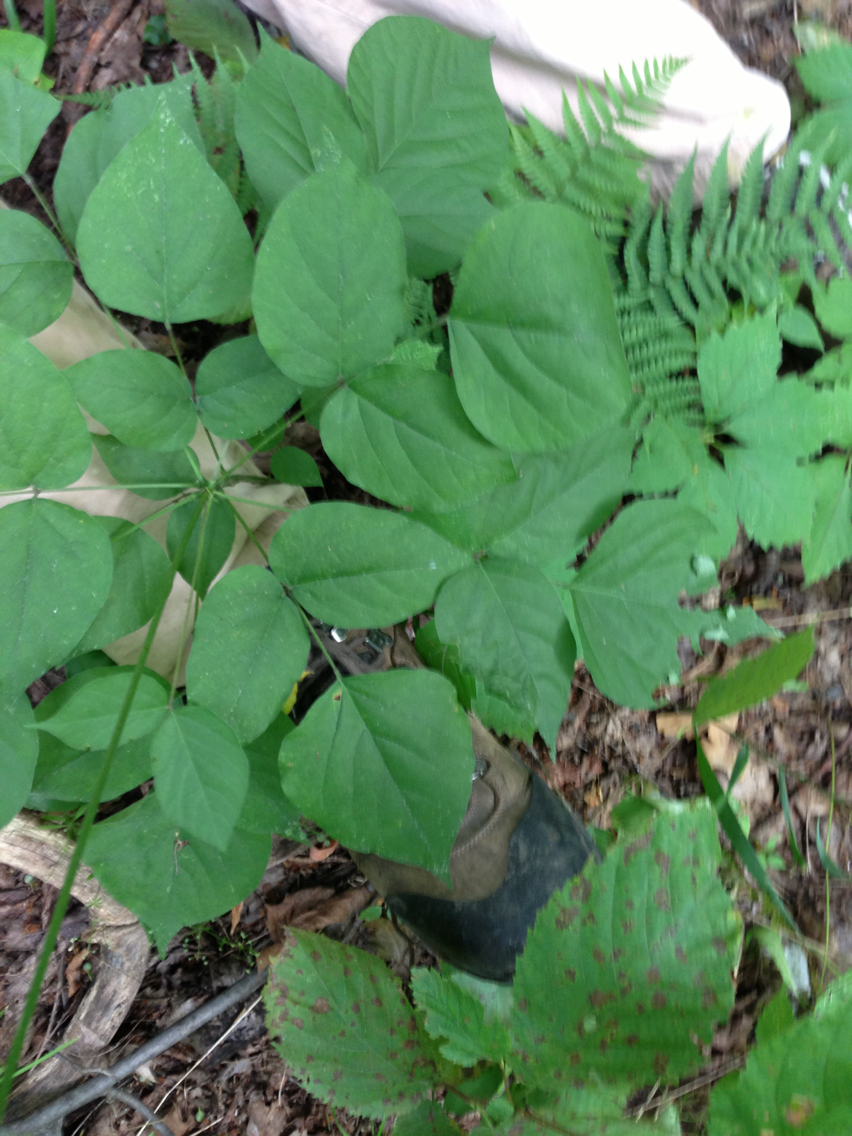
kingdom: Plantae
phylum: Tracheophyta
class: Magnoliopsida
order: Fabales
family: Fabaceae
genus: Hylodesmum
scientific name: Hylodesmum glutinosum
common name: Clustered-leaved tick-trefoil
